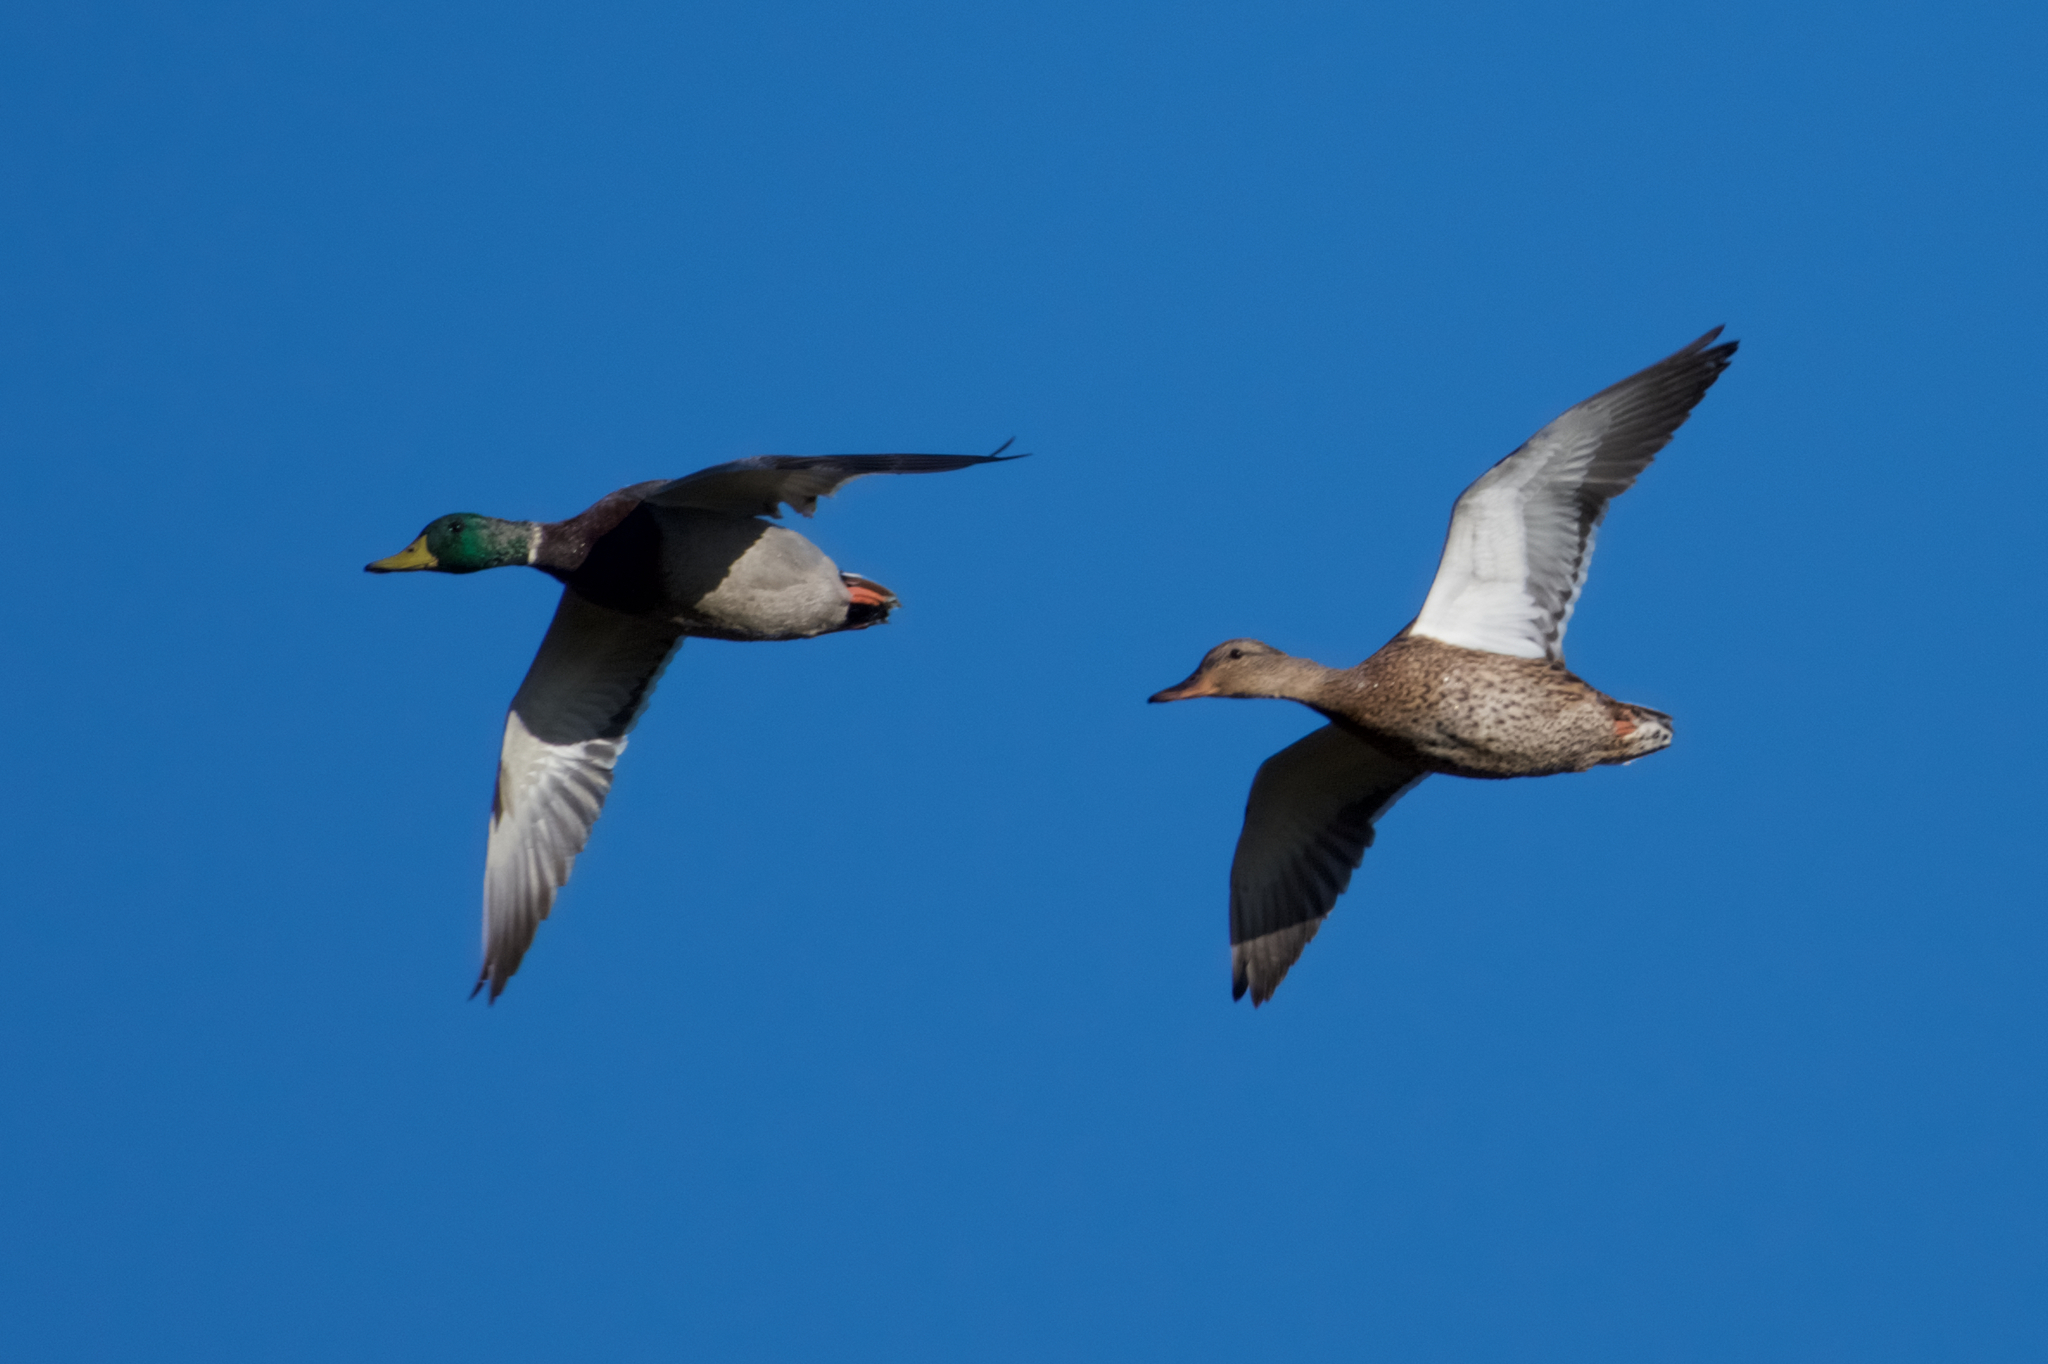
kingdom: Animalia
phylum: Chordata
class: Aves
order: Anseriformes
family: Anatidae
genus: Anas
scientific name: Anas platyrhynchos
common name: Mallard
